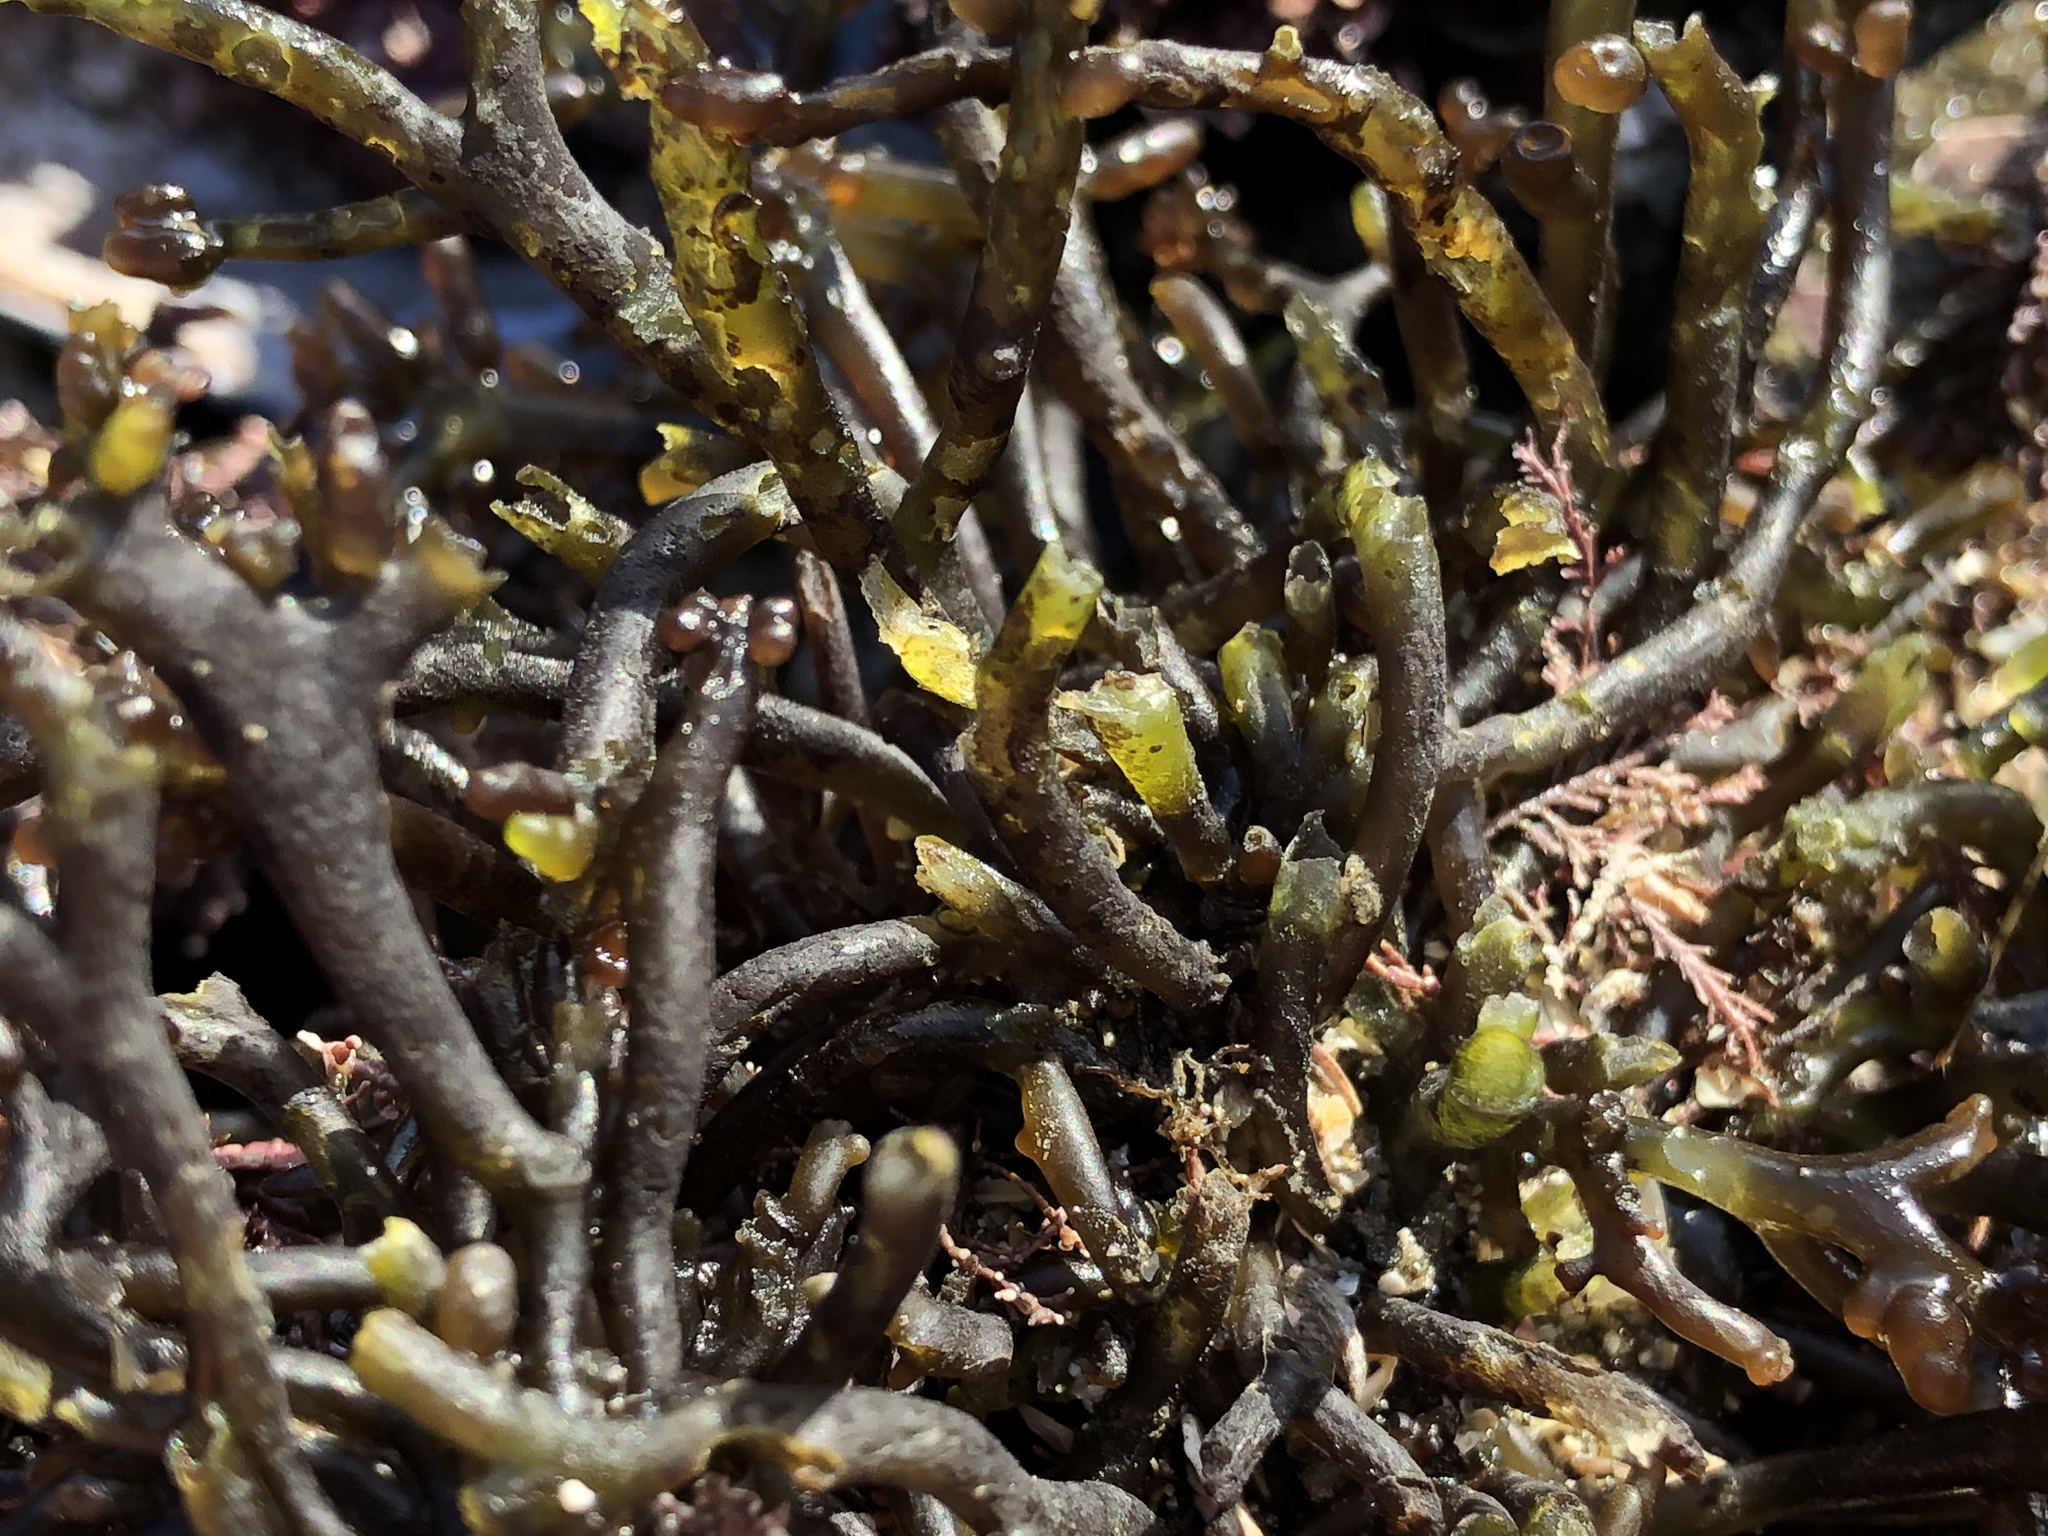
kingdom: Plantae
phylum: Rhodophyta
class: Florideophyceae
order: Rhodymeniales
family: Champiaceae
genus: Neogastroclonium
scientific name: Neogastroclonium subarticulatum
